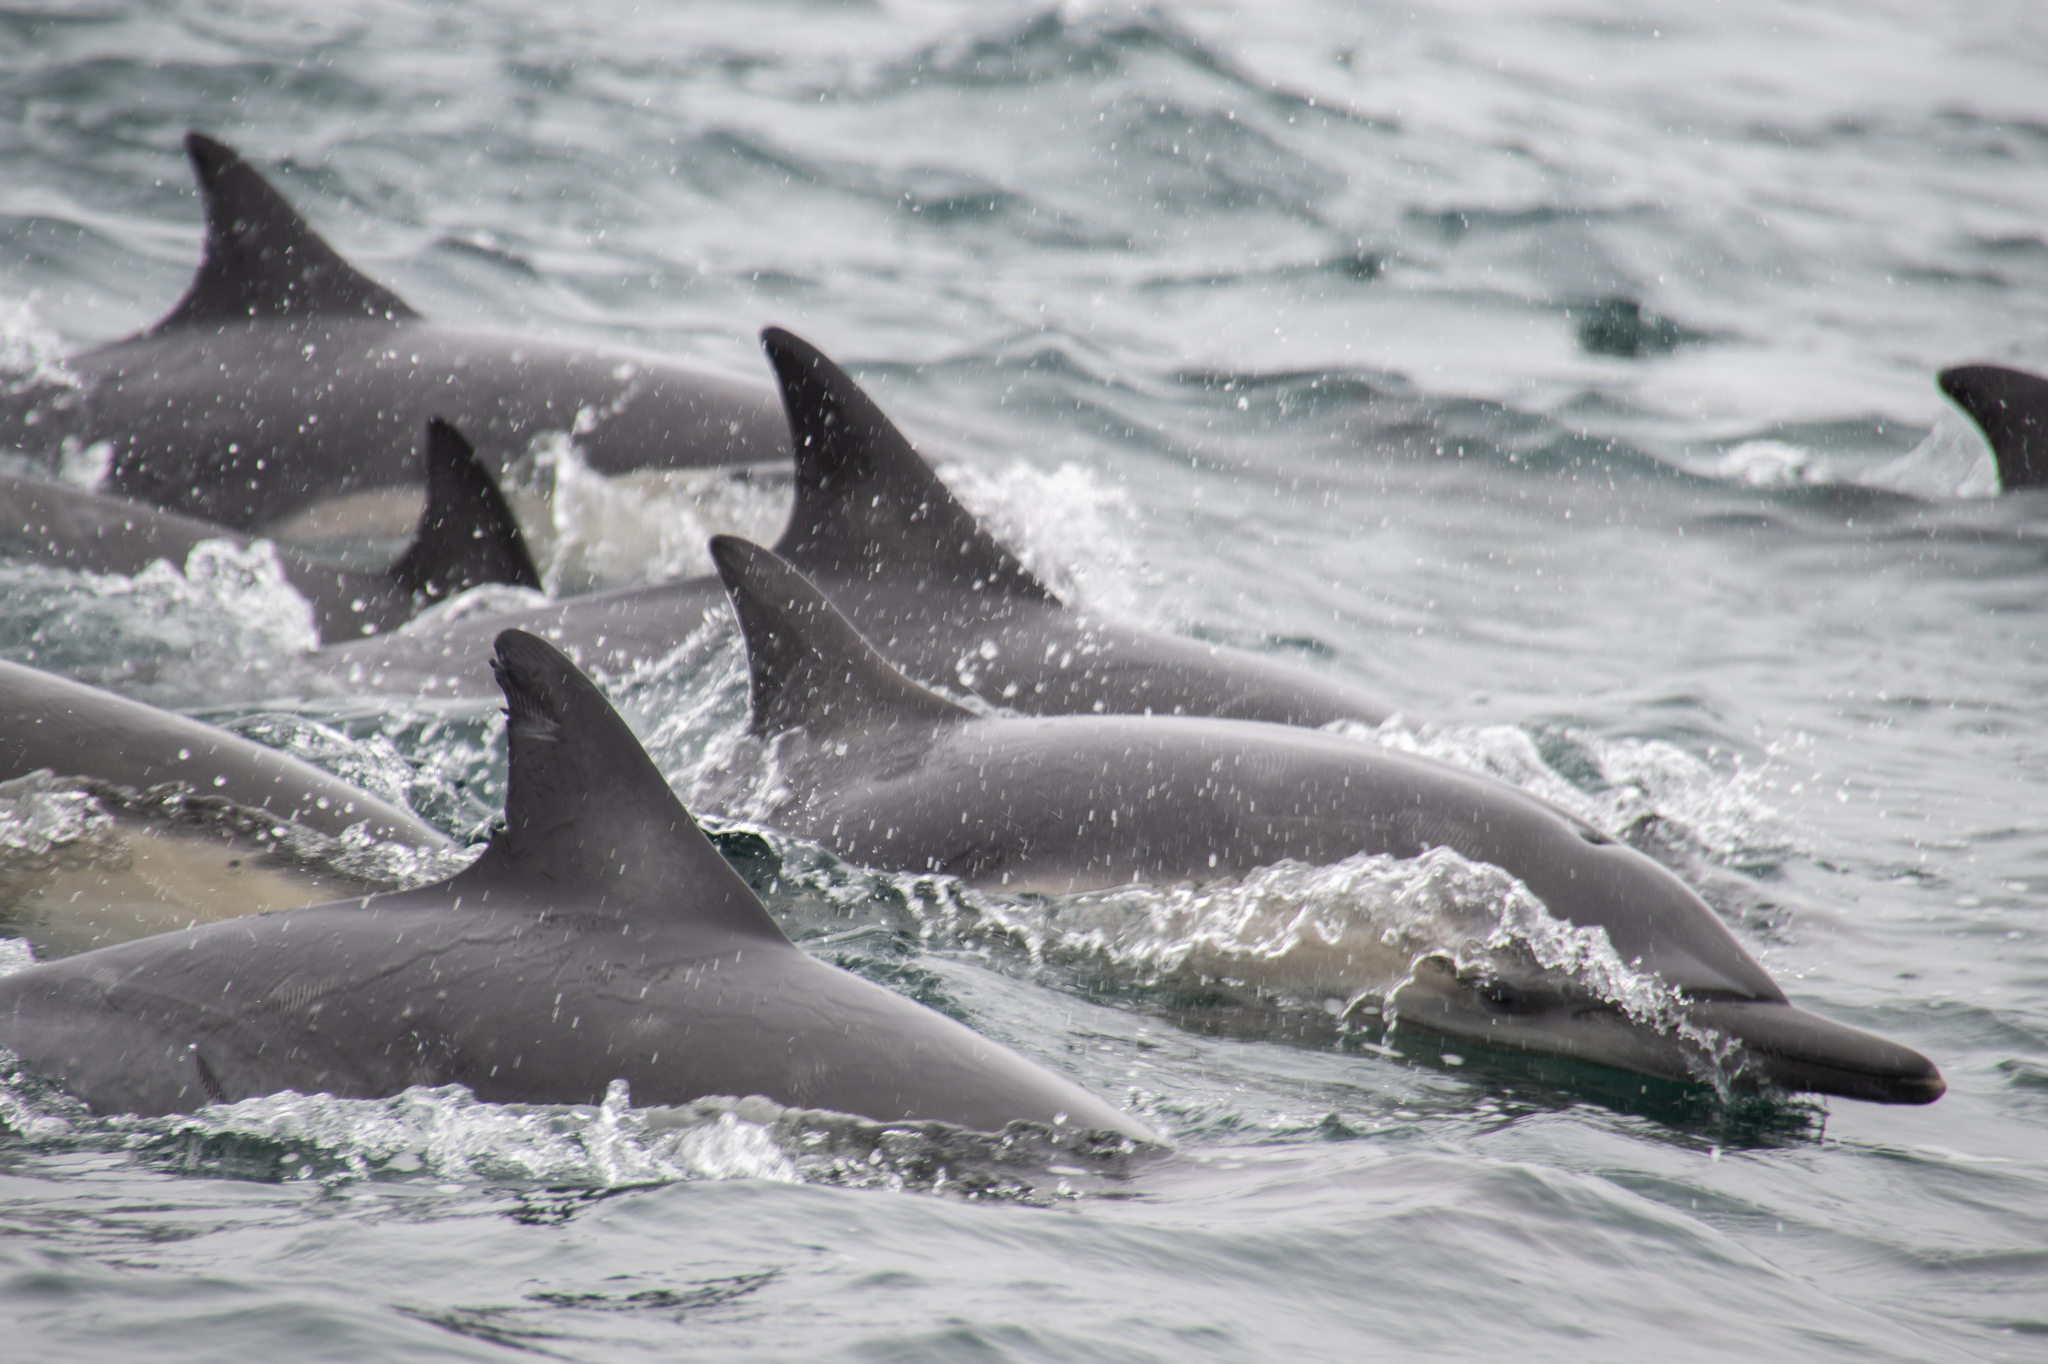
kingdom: Animalia
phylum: Chordata
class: Mammalia
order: Cetacea
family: Delphinidae
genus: Delphinus
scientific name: Delphinus delphis
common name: Common dolphin
